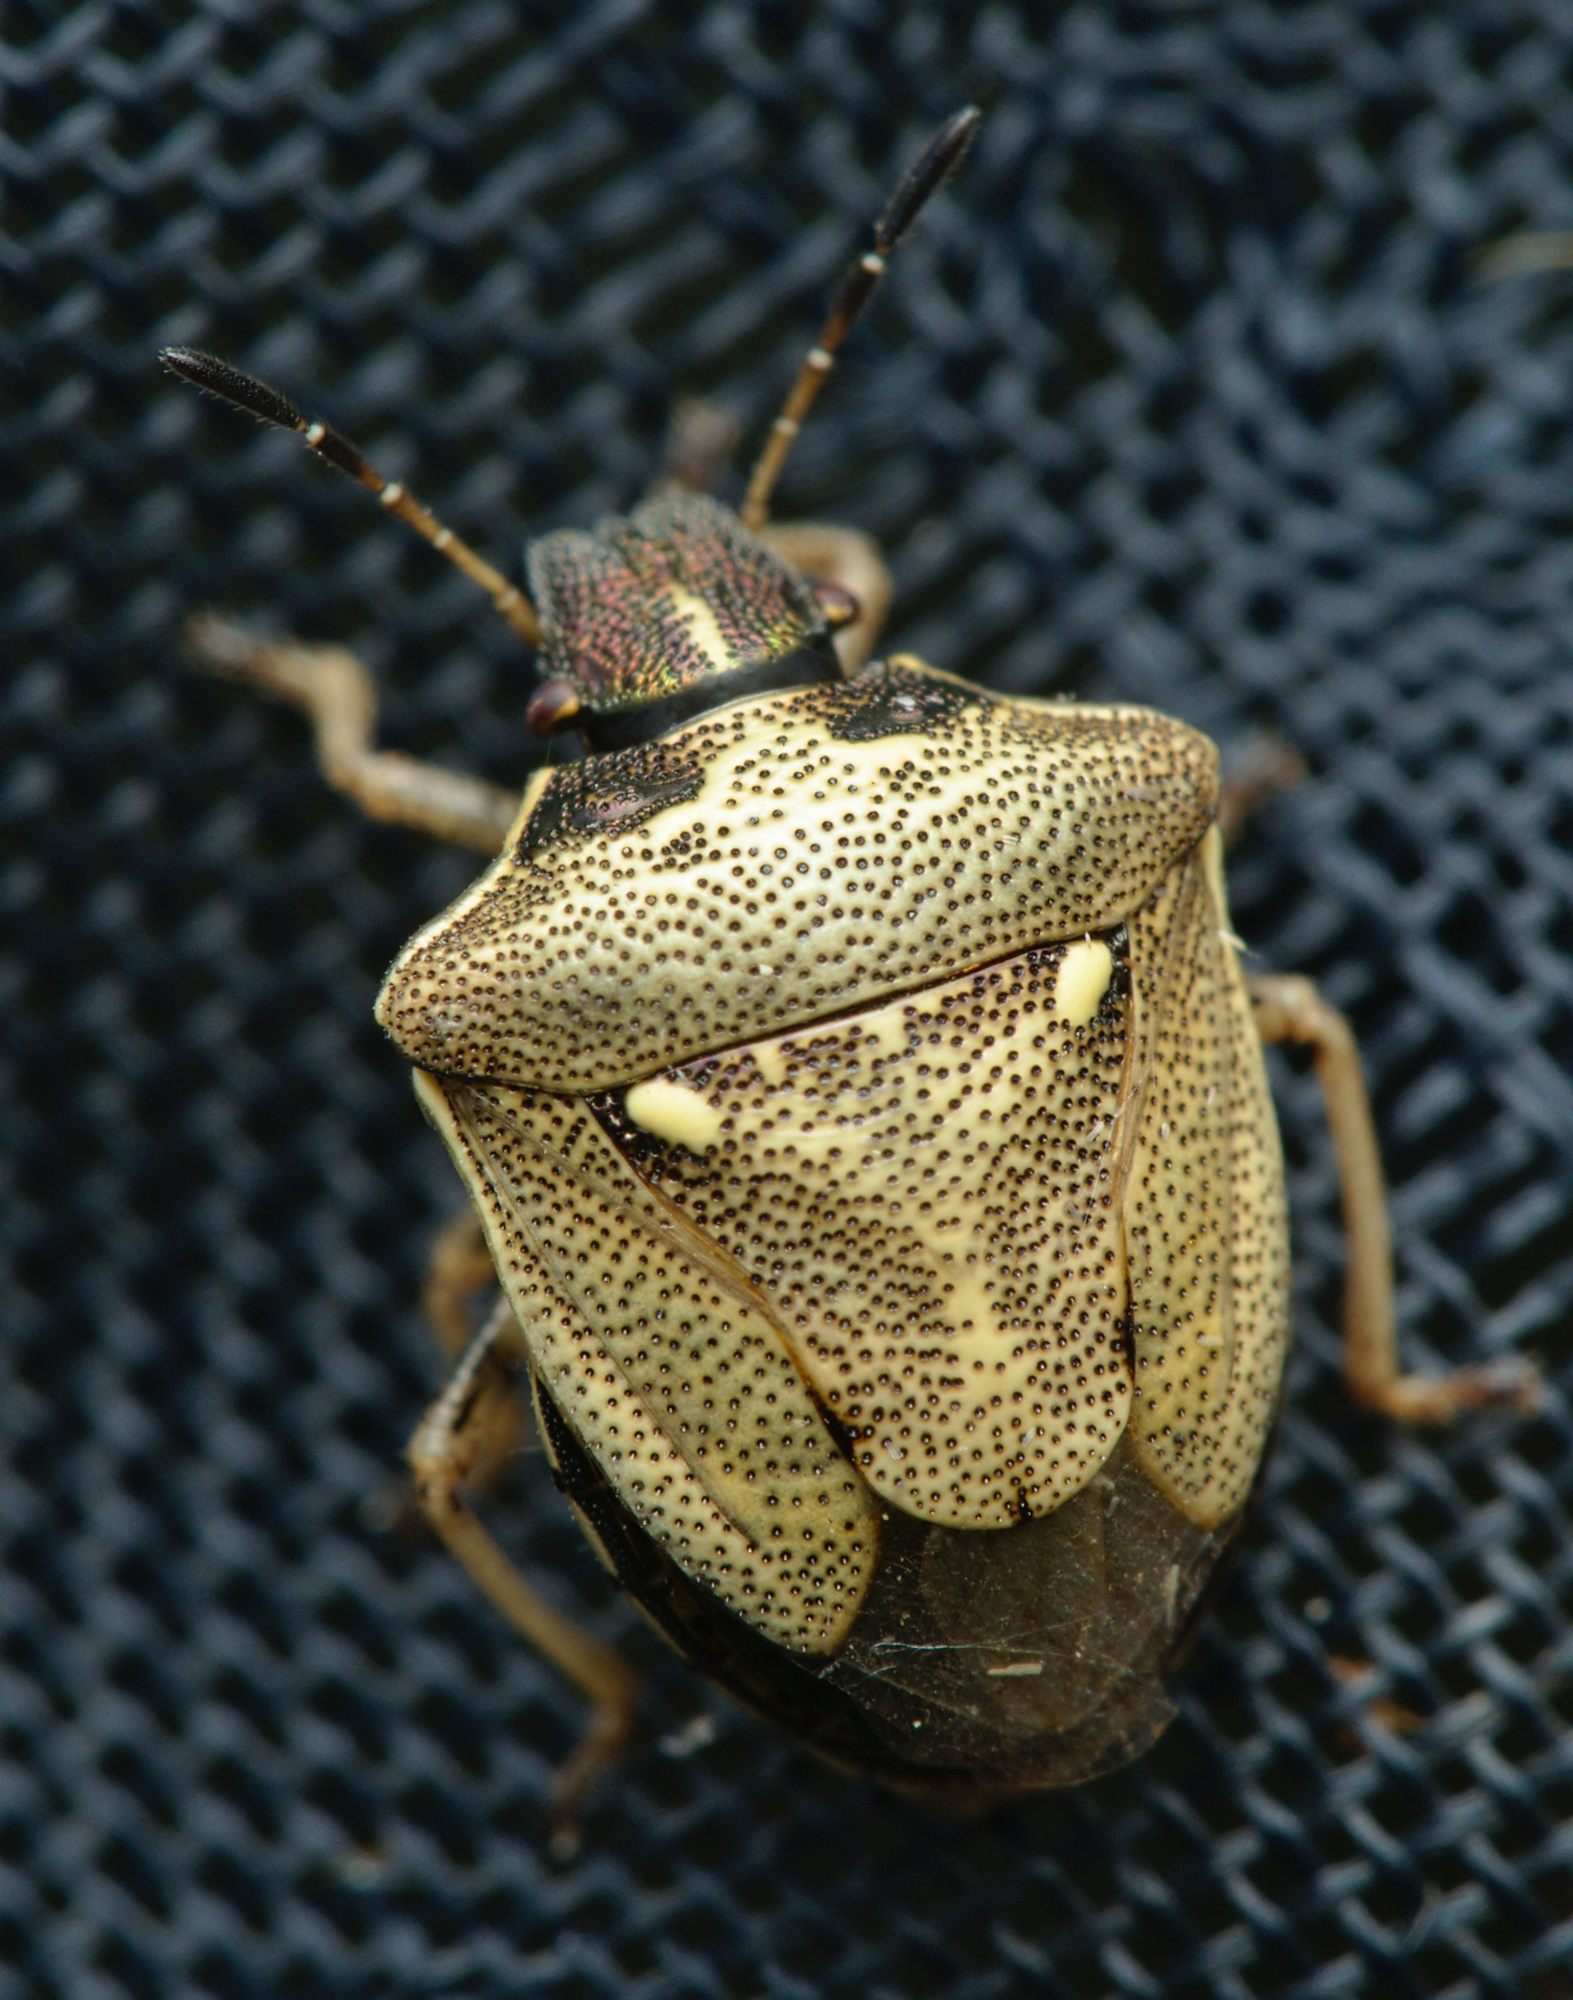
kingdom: Animalia
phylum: Arthropoda
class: Insecta
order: Hemiptera
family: Pentatomidae
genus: Eysarcoris
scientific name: Eysarcoris aeneus
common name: New forest shieldbug
